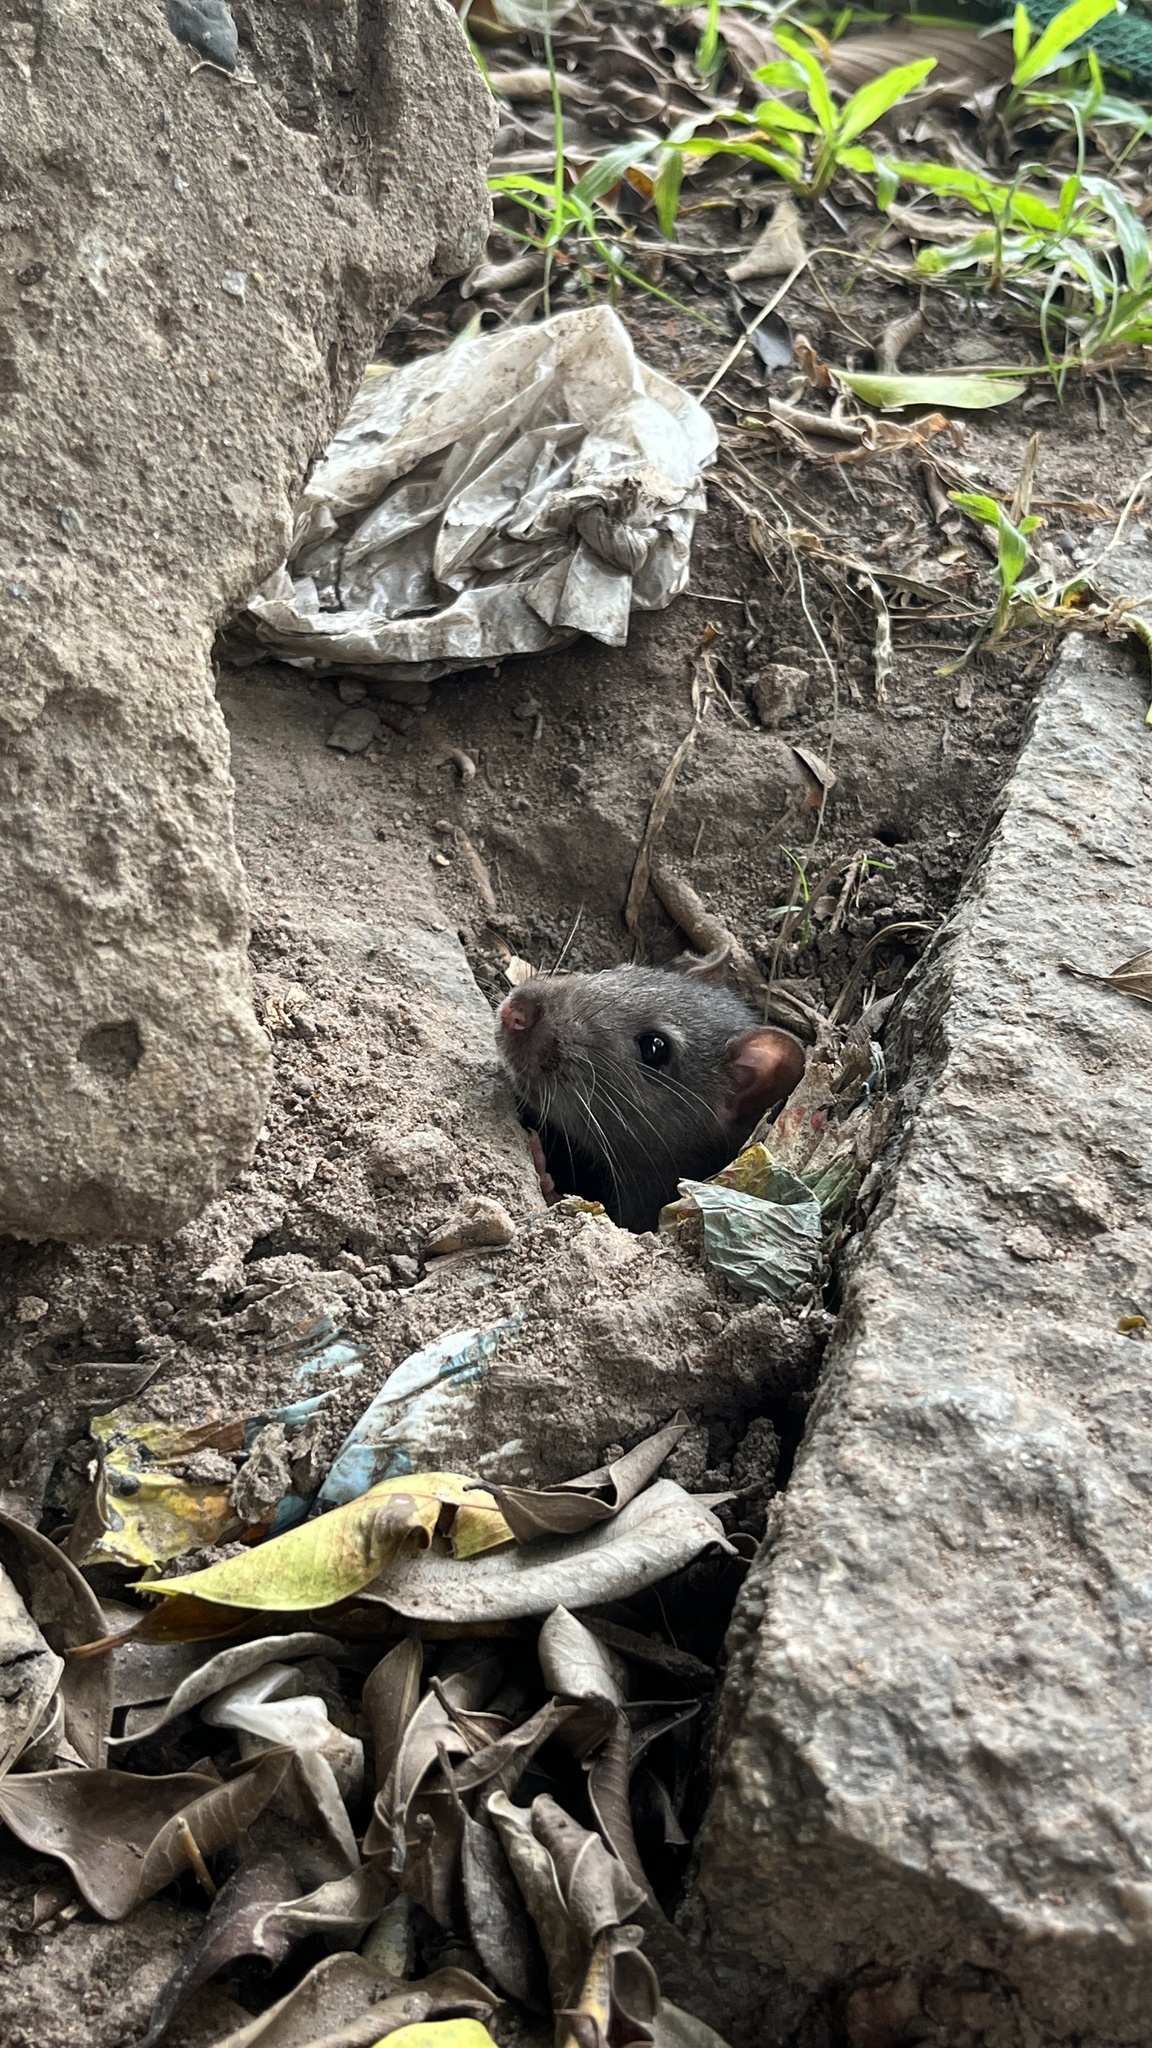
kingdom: Animalia
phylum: Chordata
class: Mammalia
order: Rodentia
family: Muridae
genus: Rattus
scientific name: Rattus rattus
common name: Black rat
